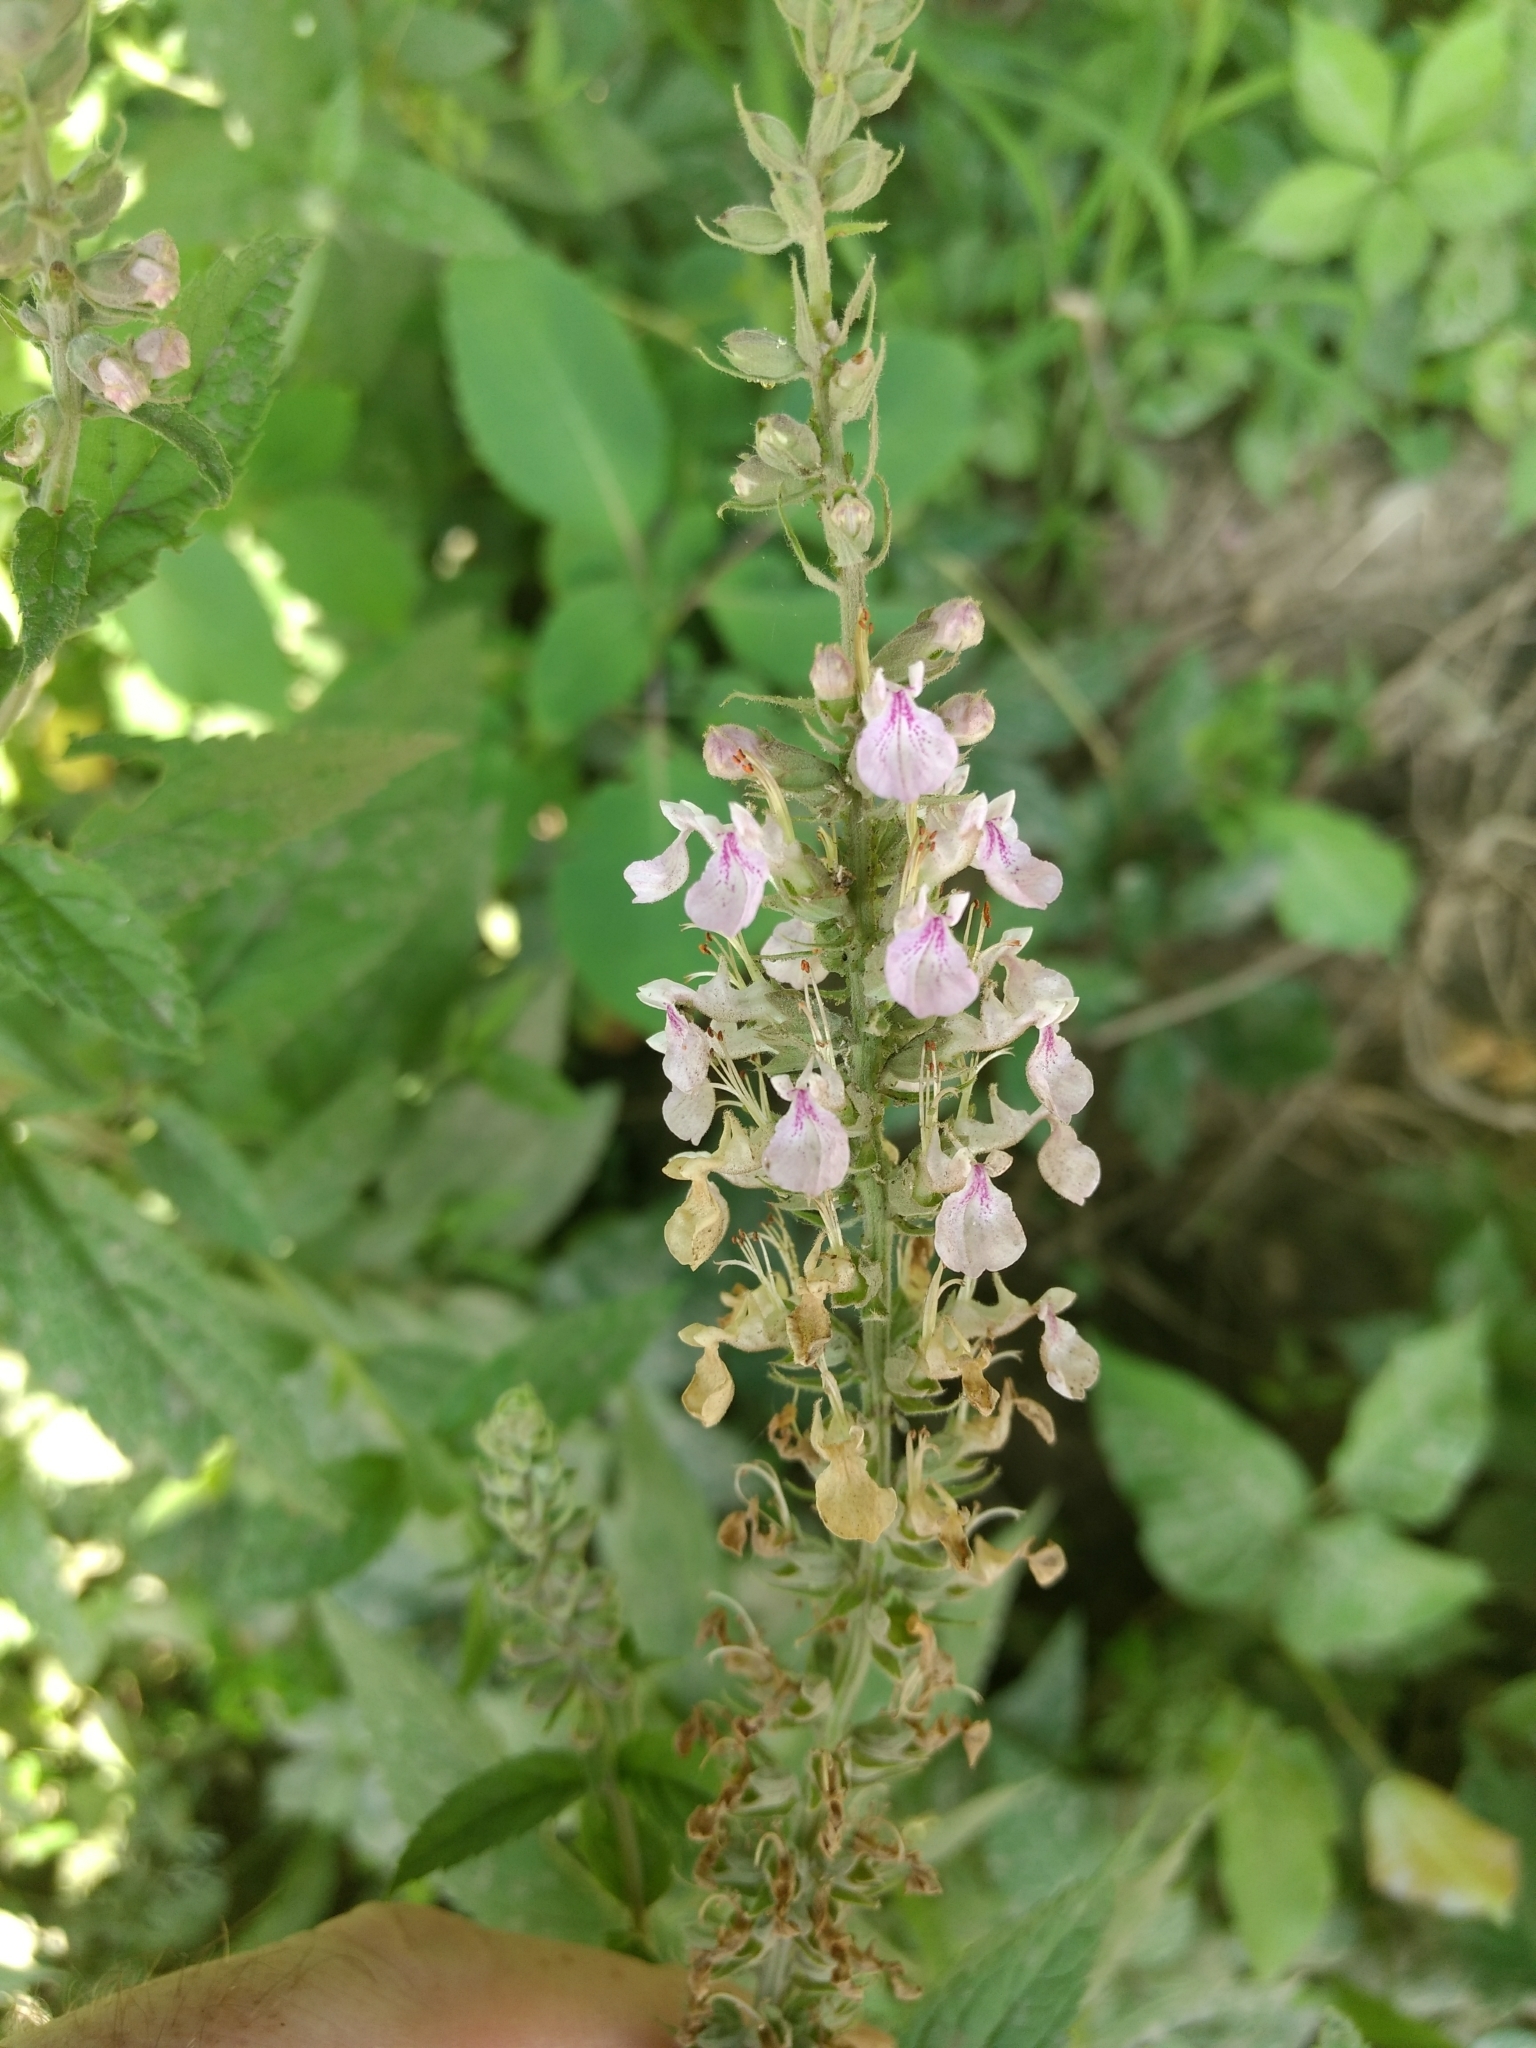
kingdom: Plantae
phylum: Tracheophyta
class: Magnoliopsida
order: Lamiales
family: Lamiaceae
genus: Teucrium
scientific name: Teucrium canadense
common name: American germander
